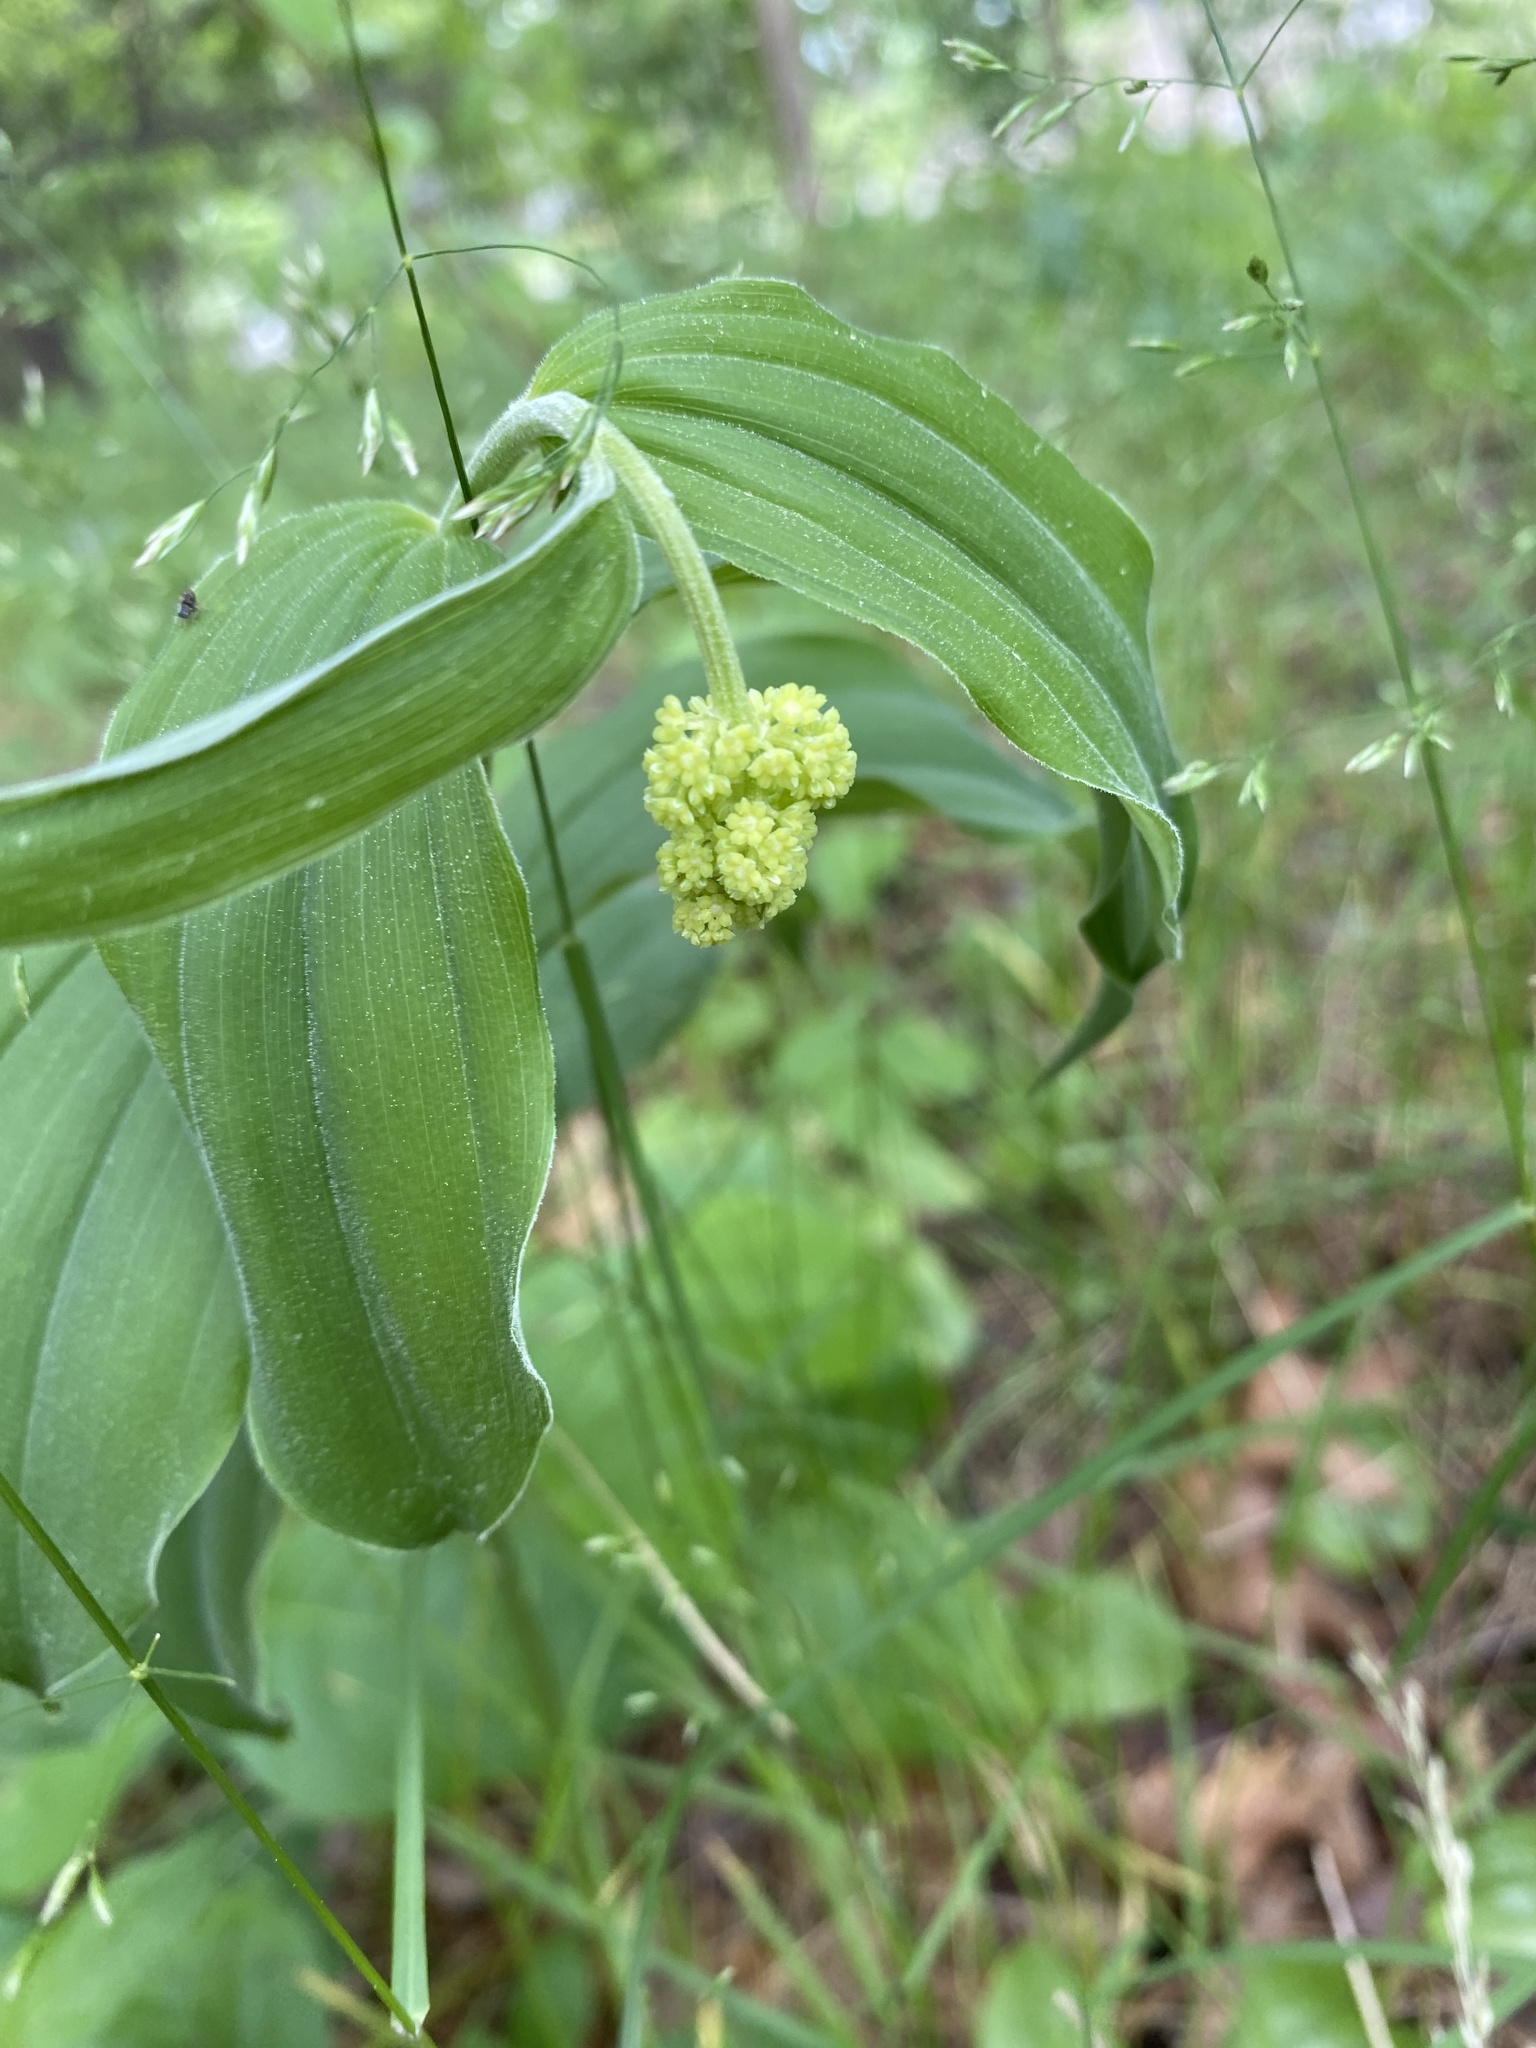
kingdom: Plantae
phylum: Tracheophyta
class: Liliopsida
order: Asparagales
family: Asparagaceae
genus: Maianthemum
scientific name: Maianthemum racemosum
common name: False spikenard
